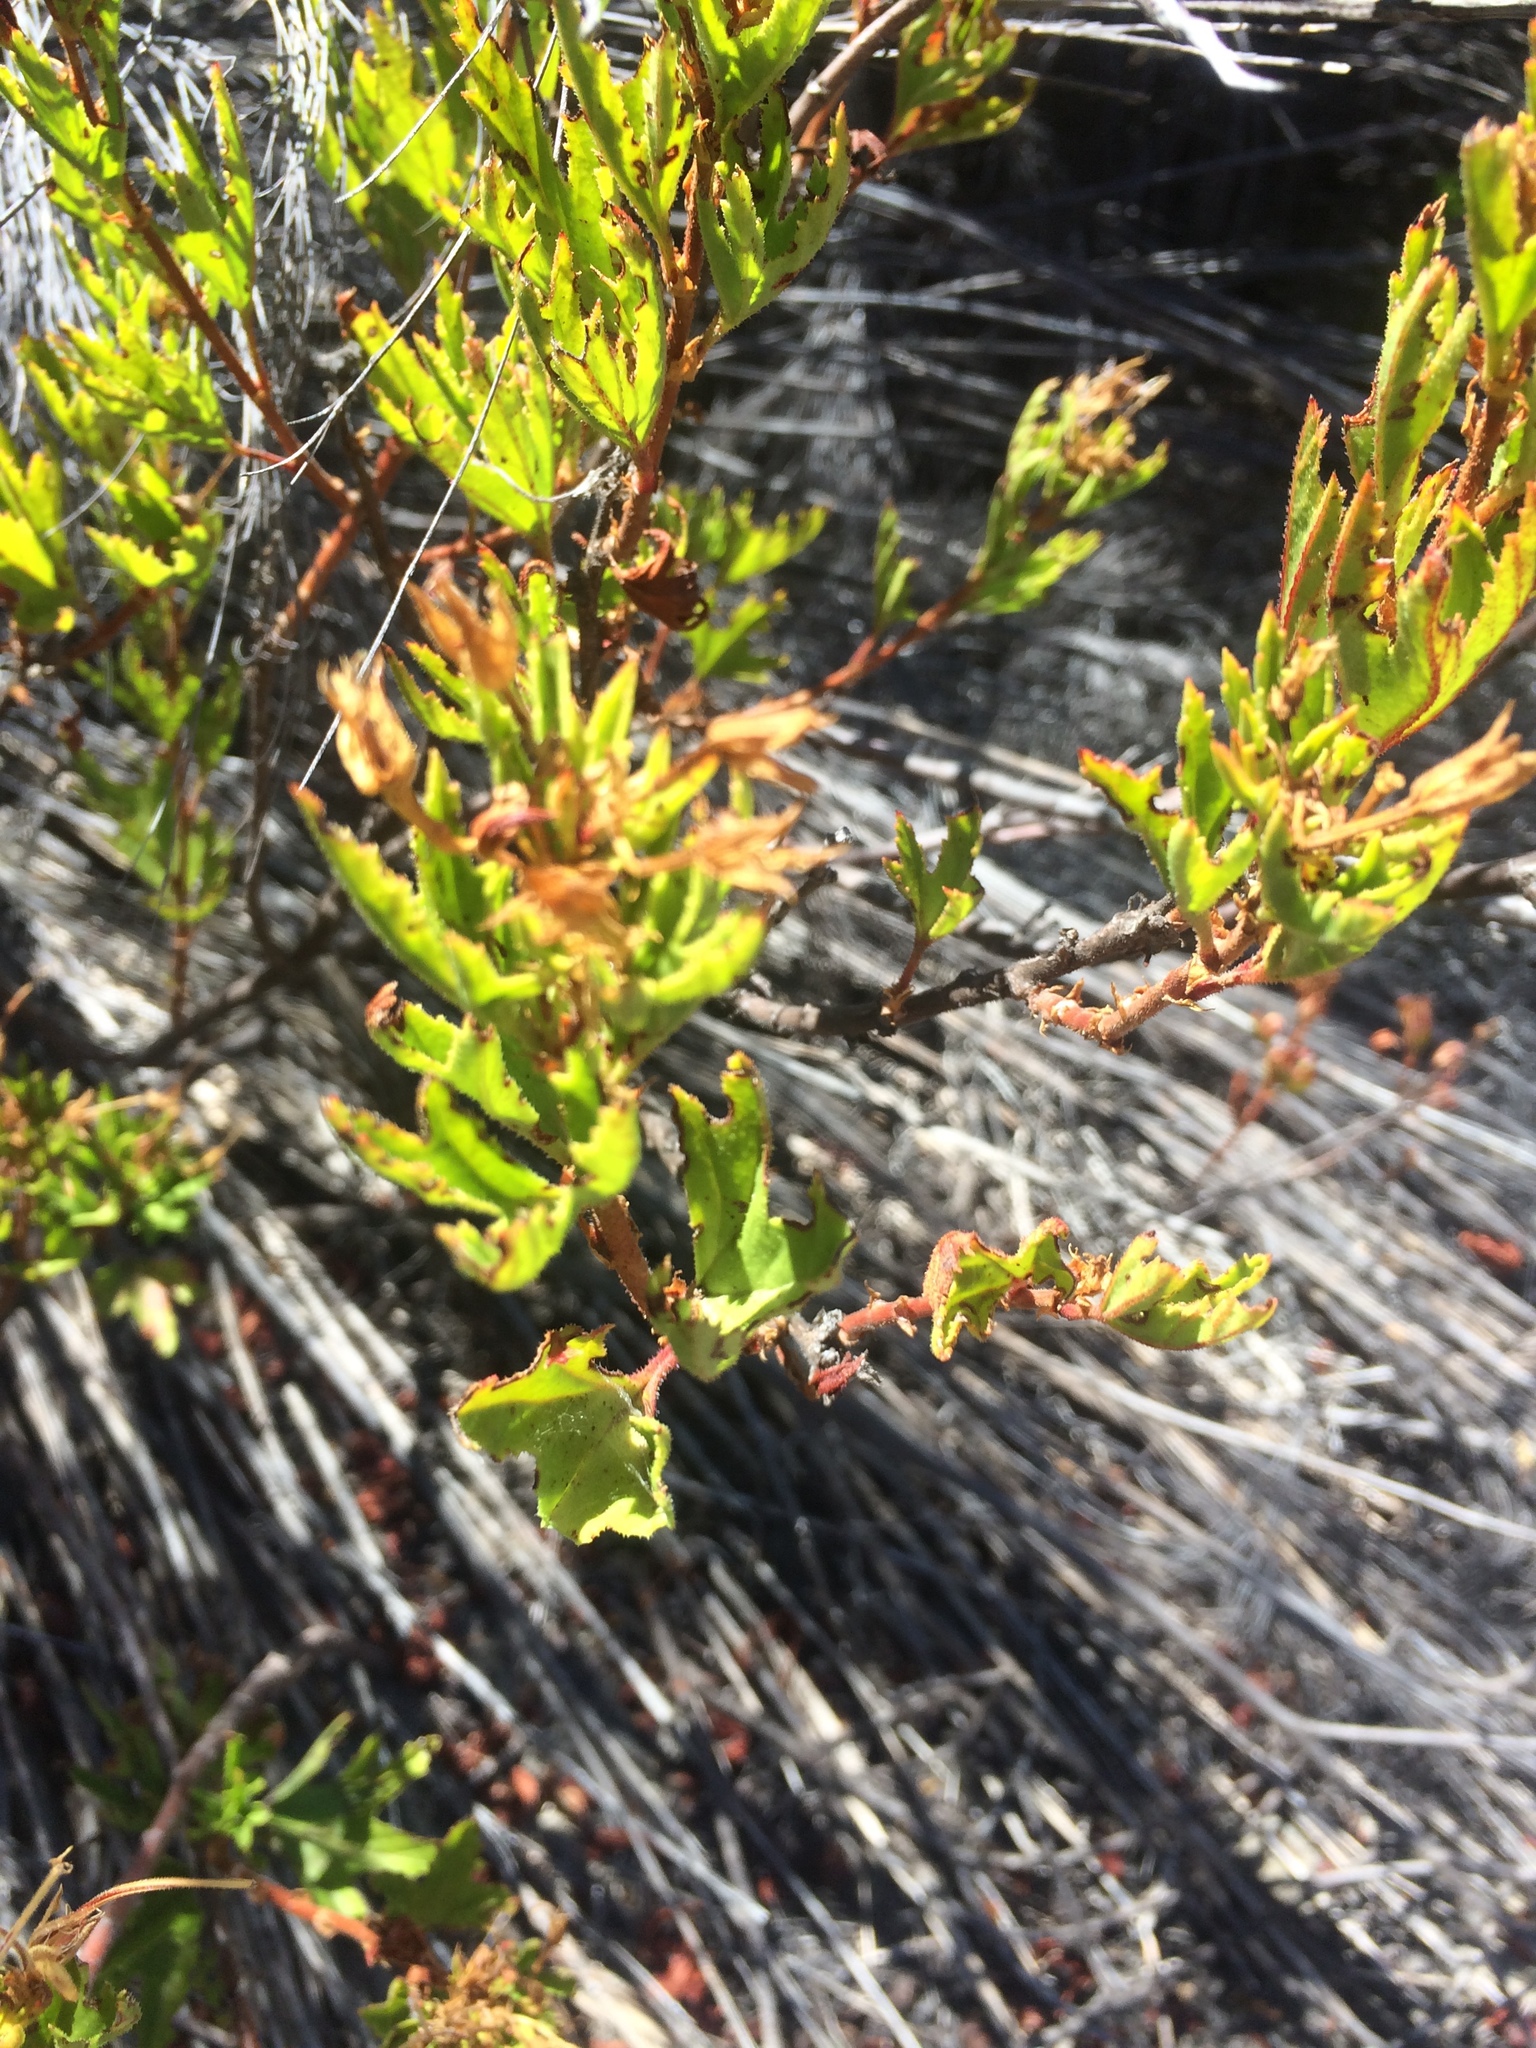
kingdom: Plantae
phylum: Tracheophyta
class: Magnoliopsida
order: Geraniales
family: Geraniaceae
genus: Pelargonium
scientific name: Pelargonium scabrum
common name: Apricot geranium
